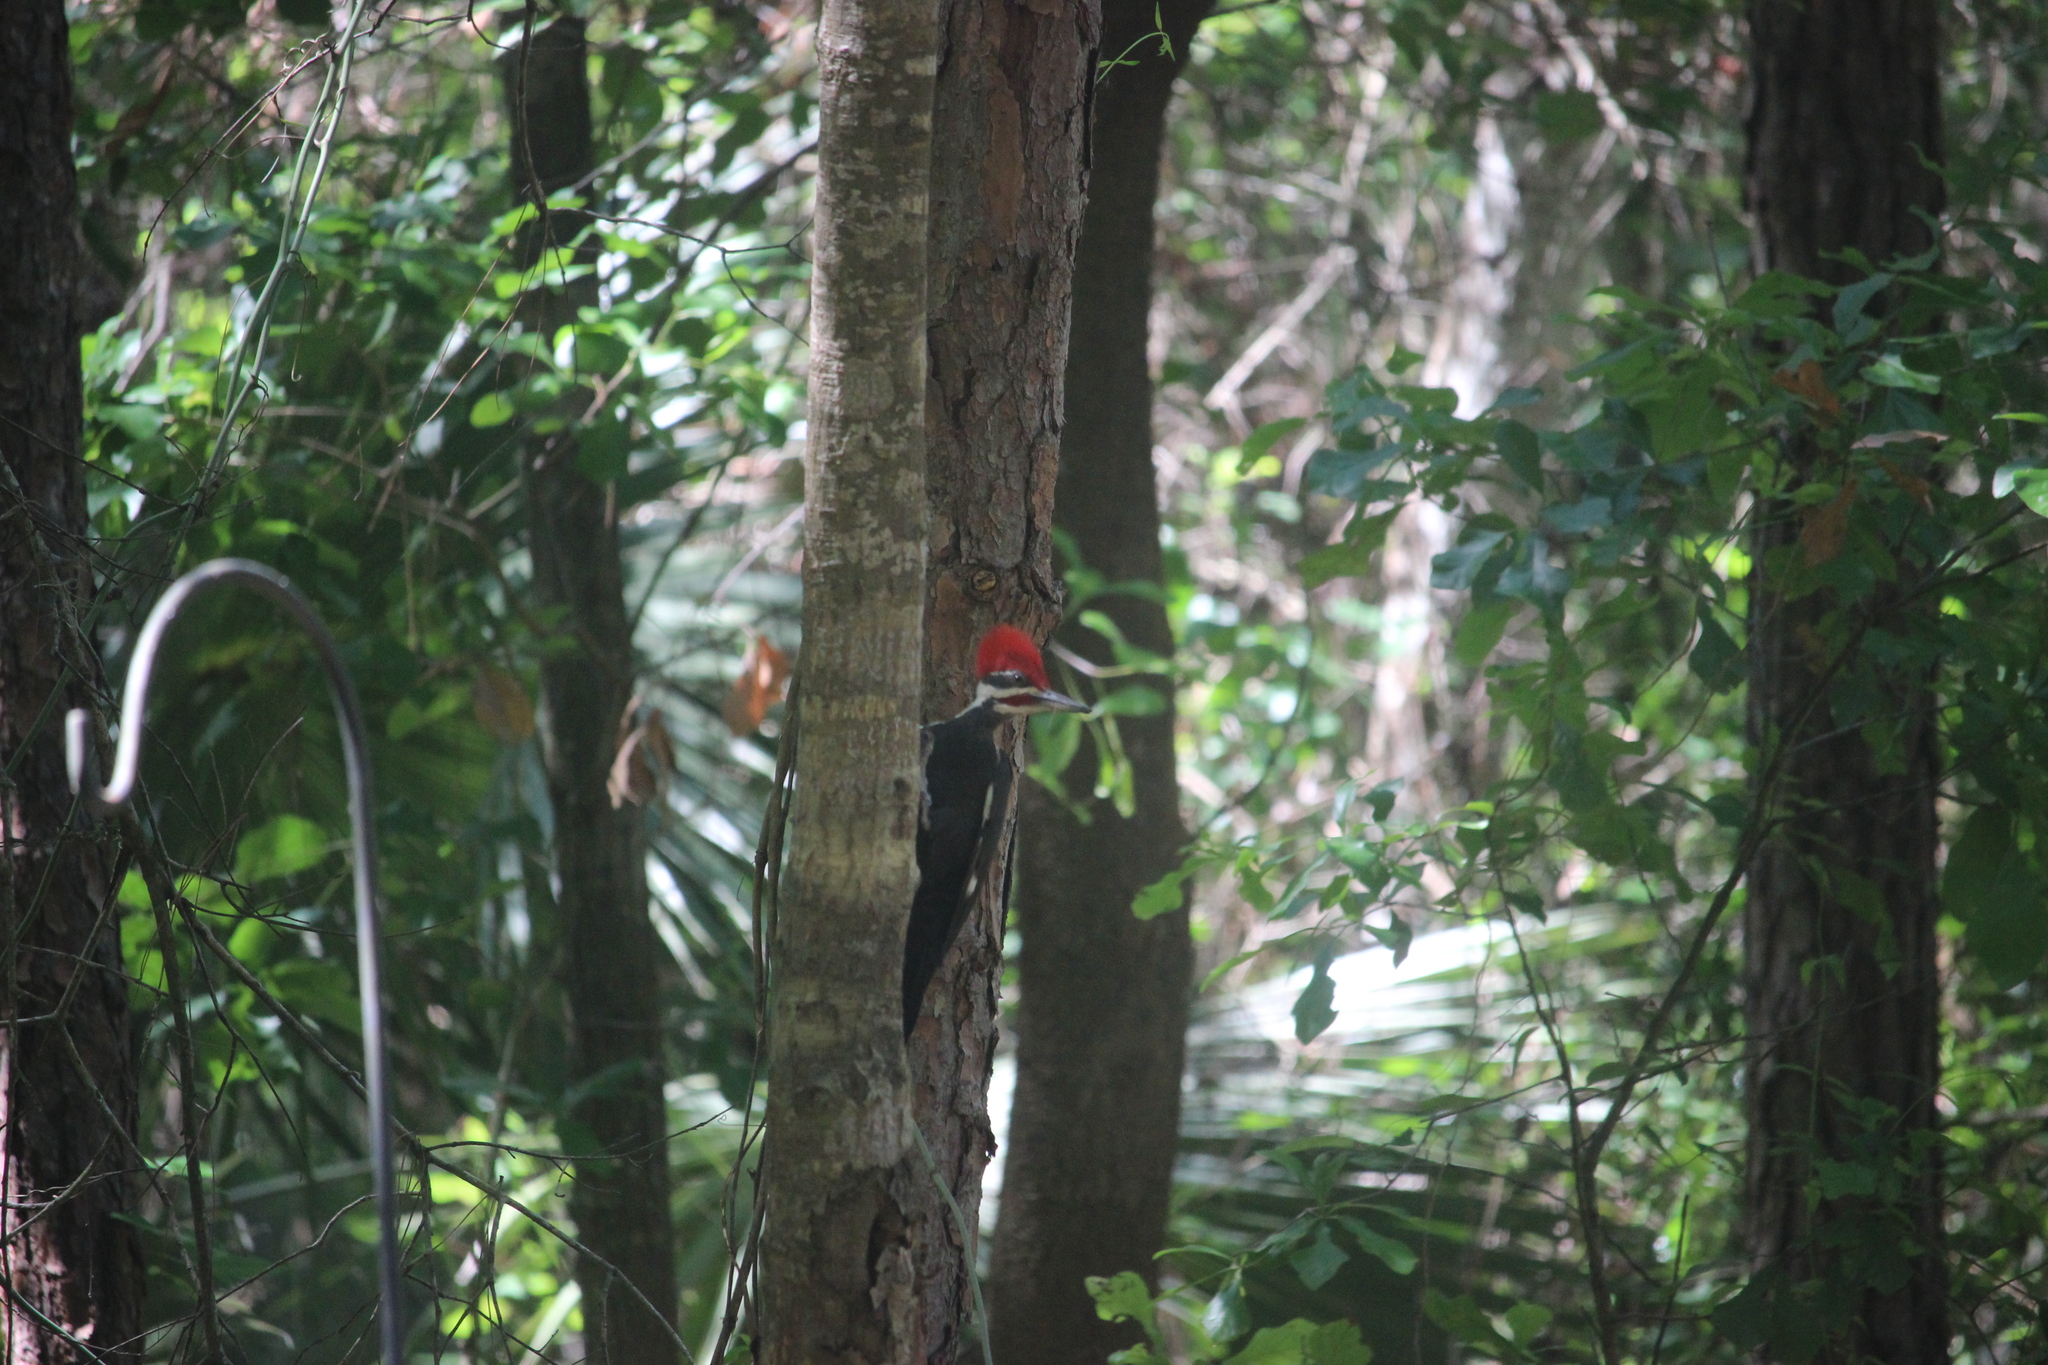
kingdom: Animalia
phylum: Chordata
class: Aves
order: Piciformes
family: Picidae
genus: Dryocopus
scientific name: Dryocopus pileatus
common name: Pileated woodpecker
